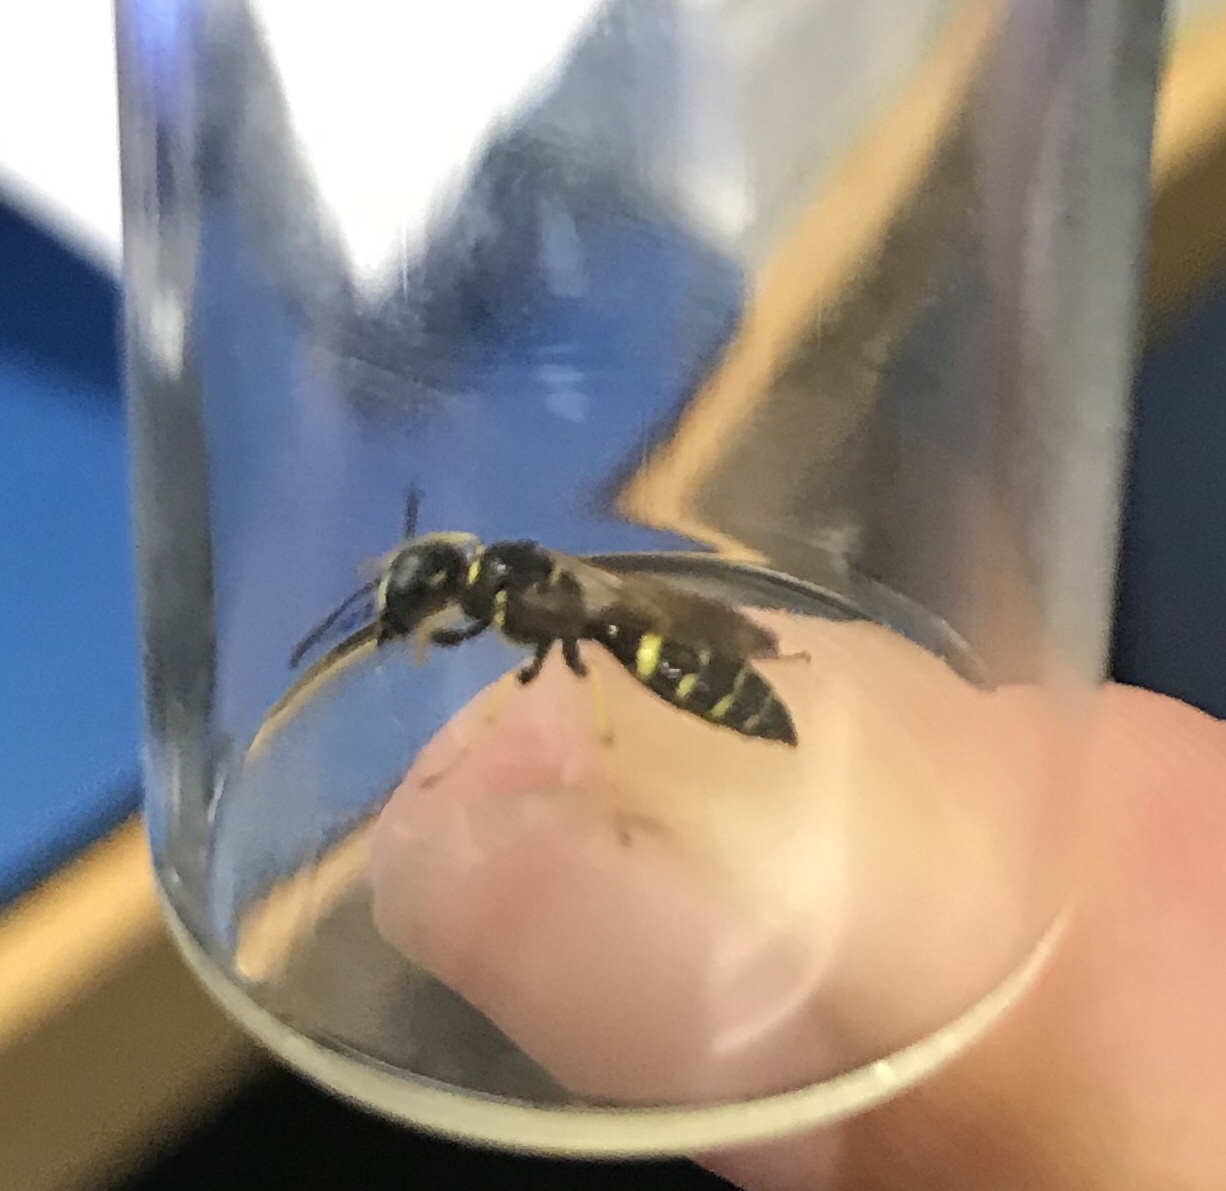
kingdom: Animalia
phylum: Arthropoda
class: Insecta
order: Hymenoptera
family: Crabronidae
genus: Philanthus
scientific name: Philanthus bilunatus
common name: Two moons beewolf
